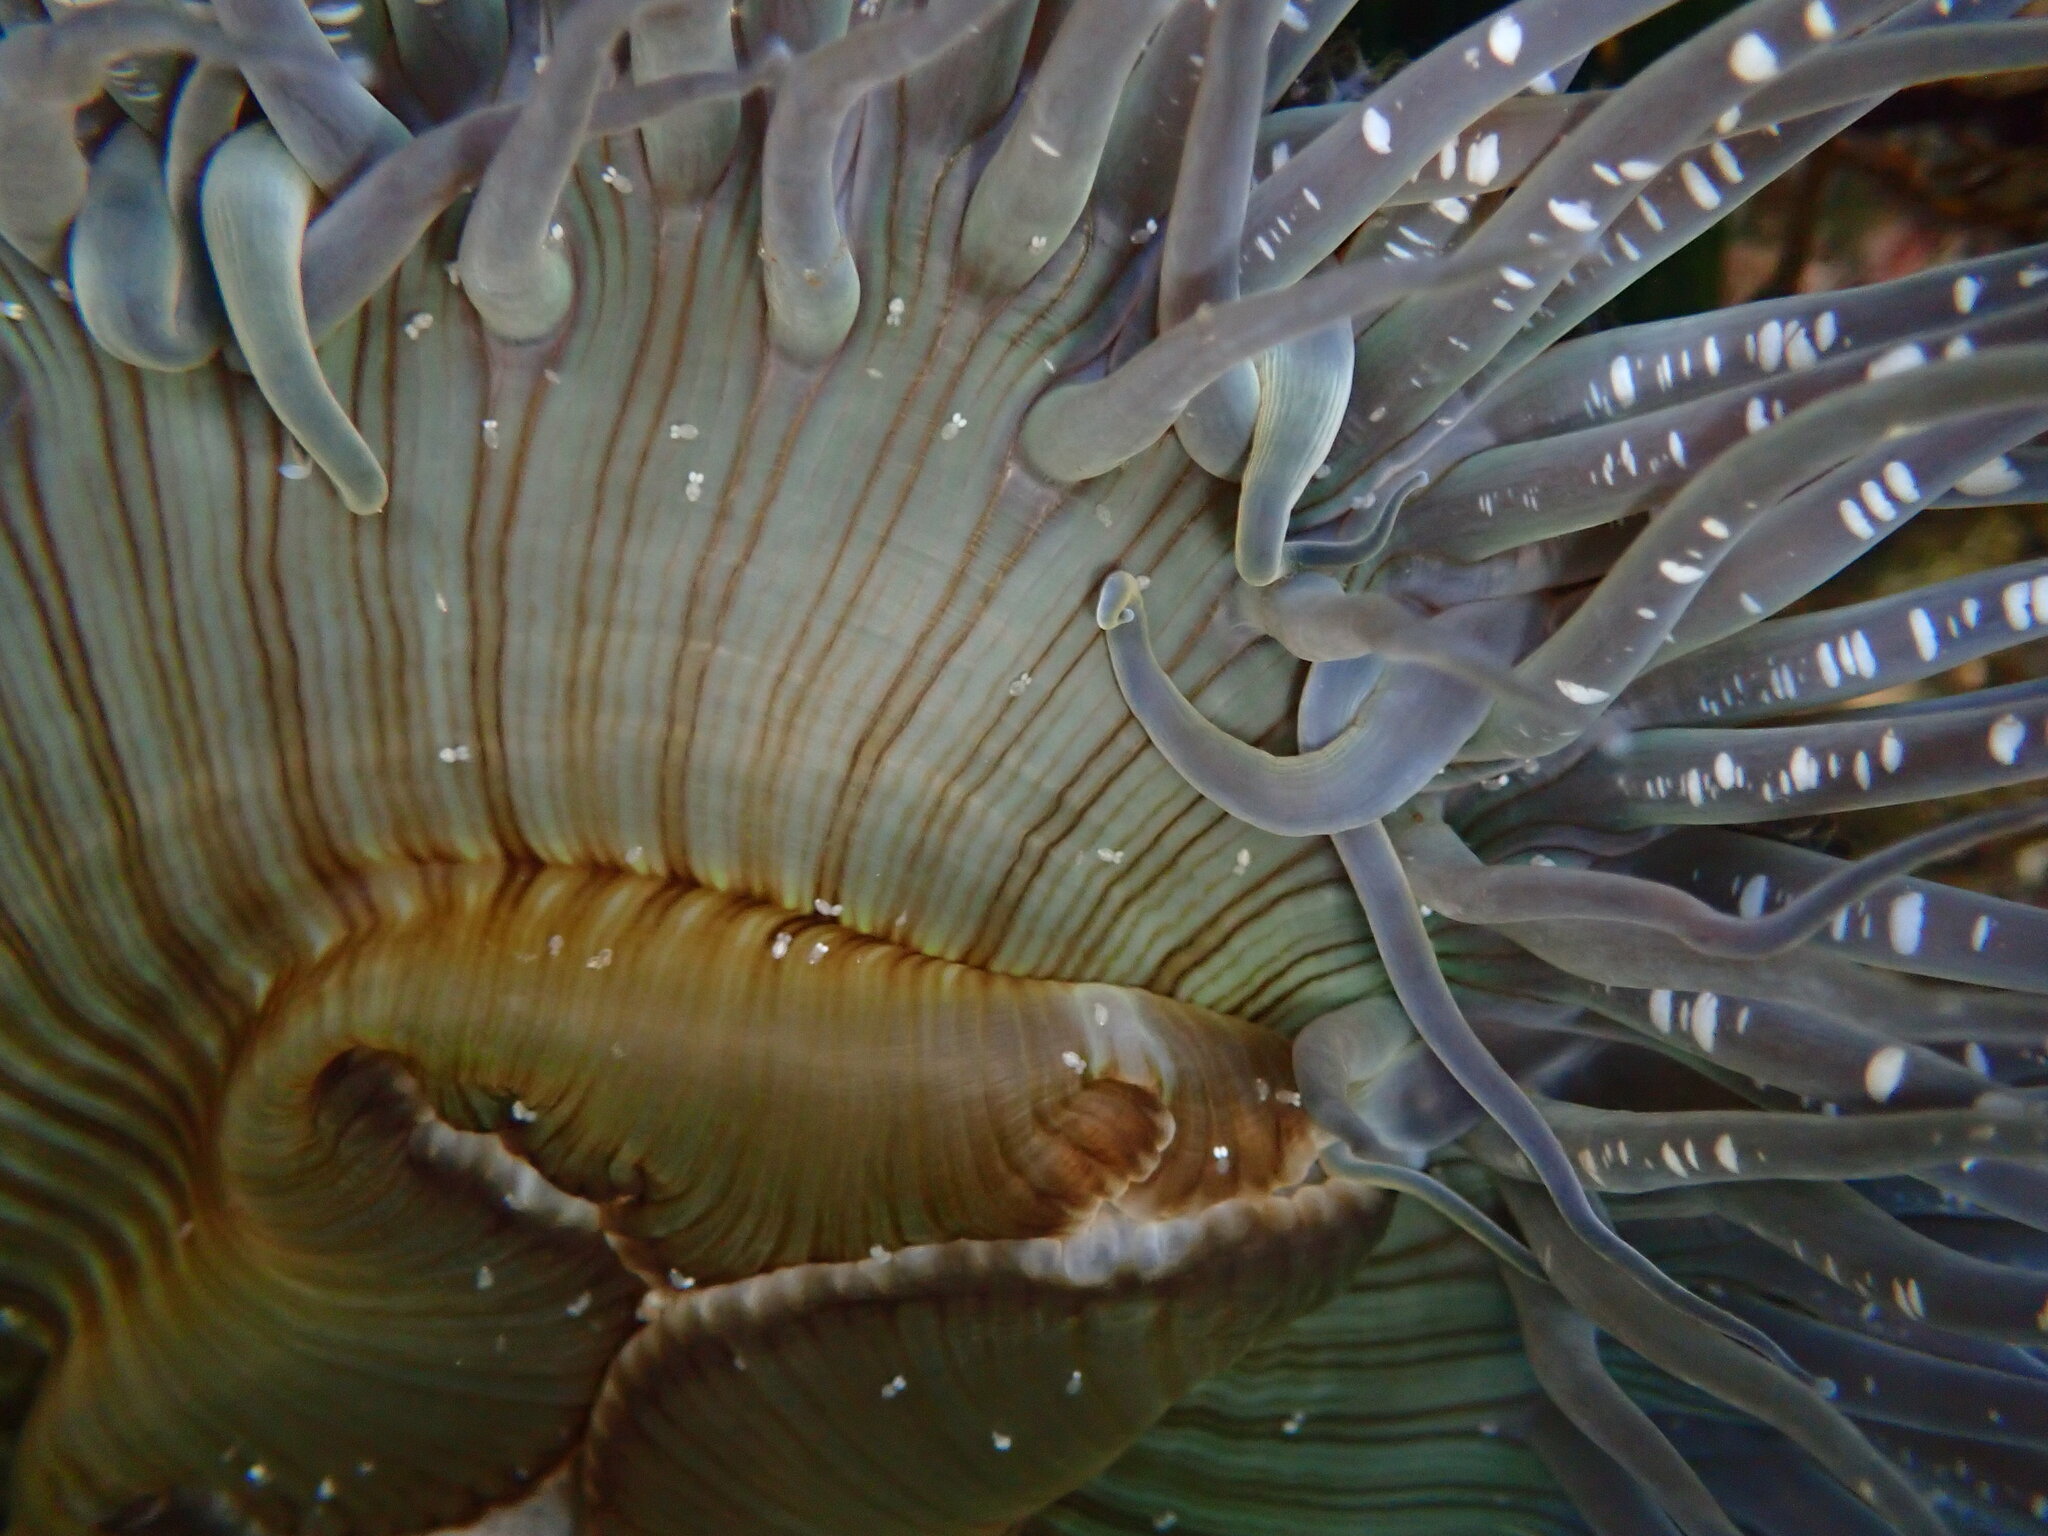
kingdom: Animalia
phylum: Cnidaria
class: Anthozoa
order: Actiniaria
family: Actiniidae
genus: Anthopleura
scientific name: Anthopleura sola
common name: Sun anemone
